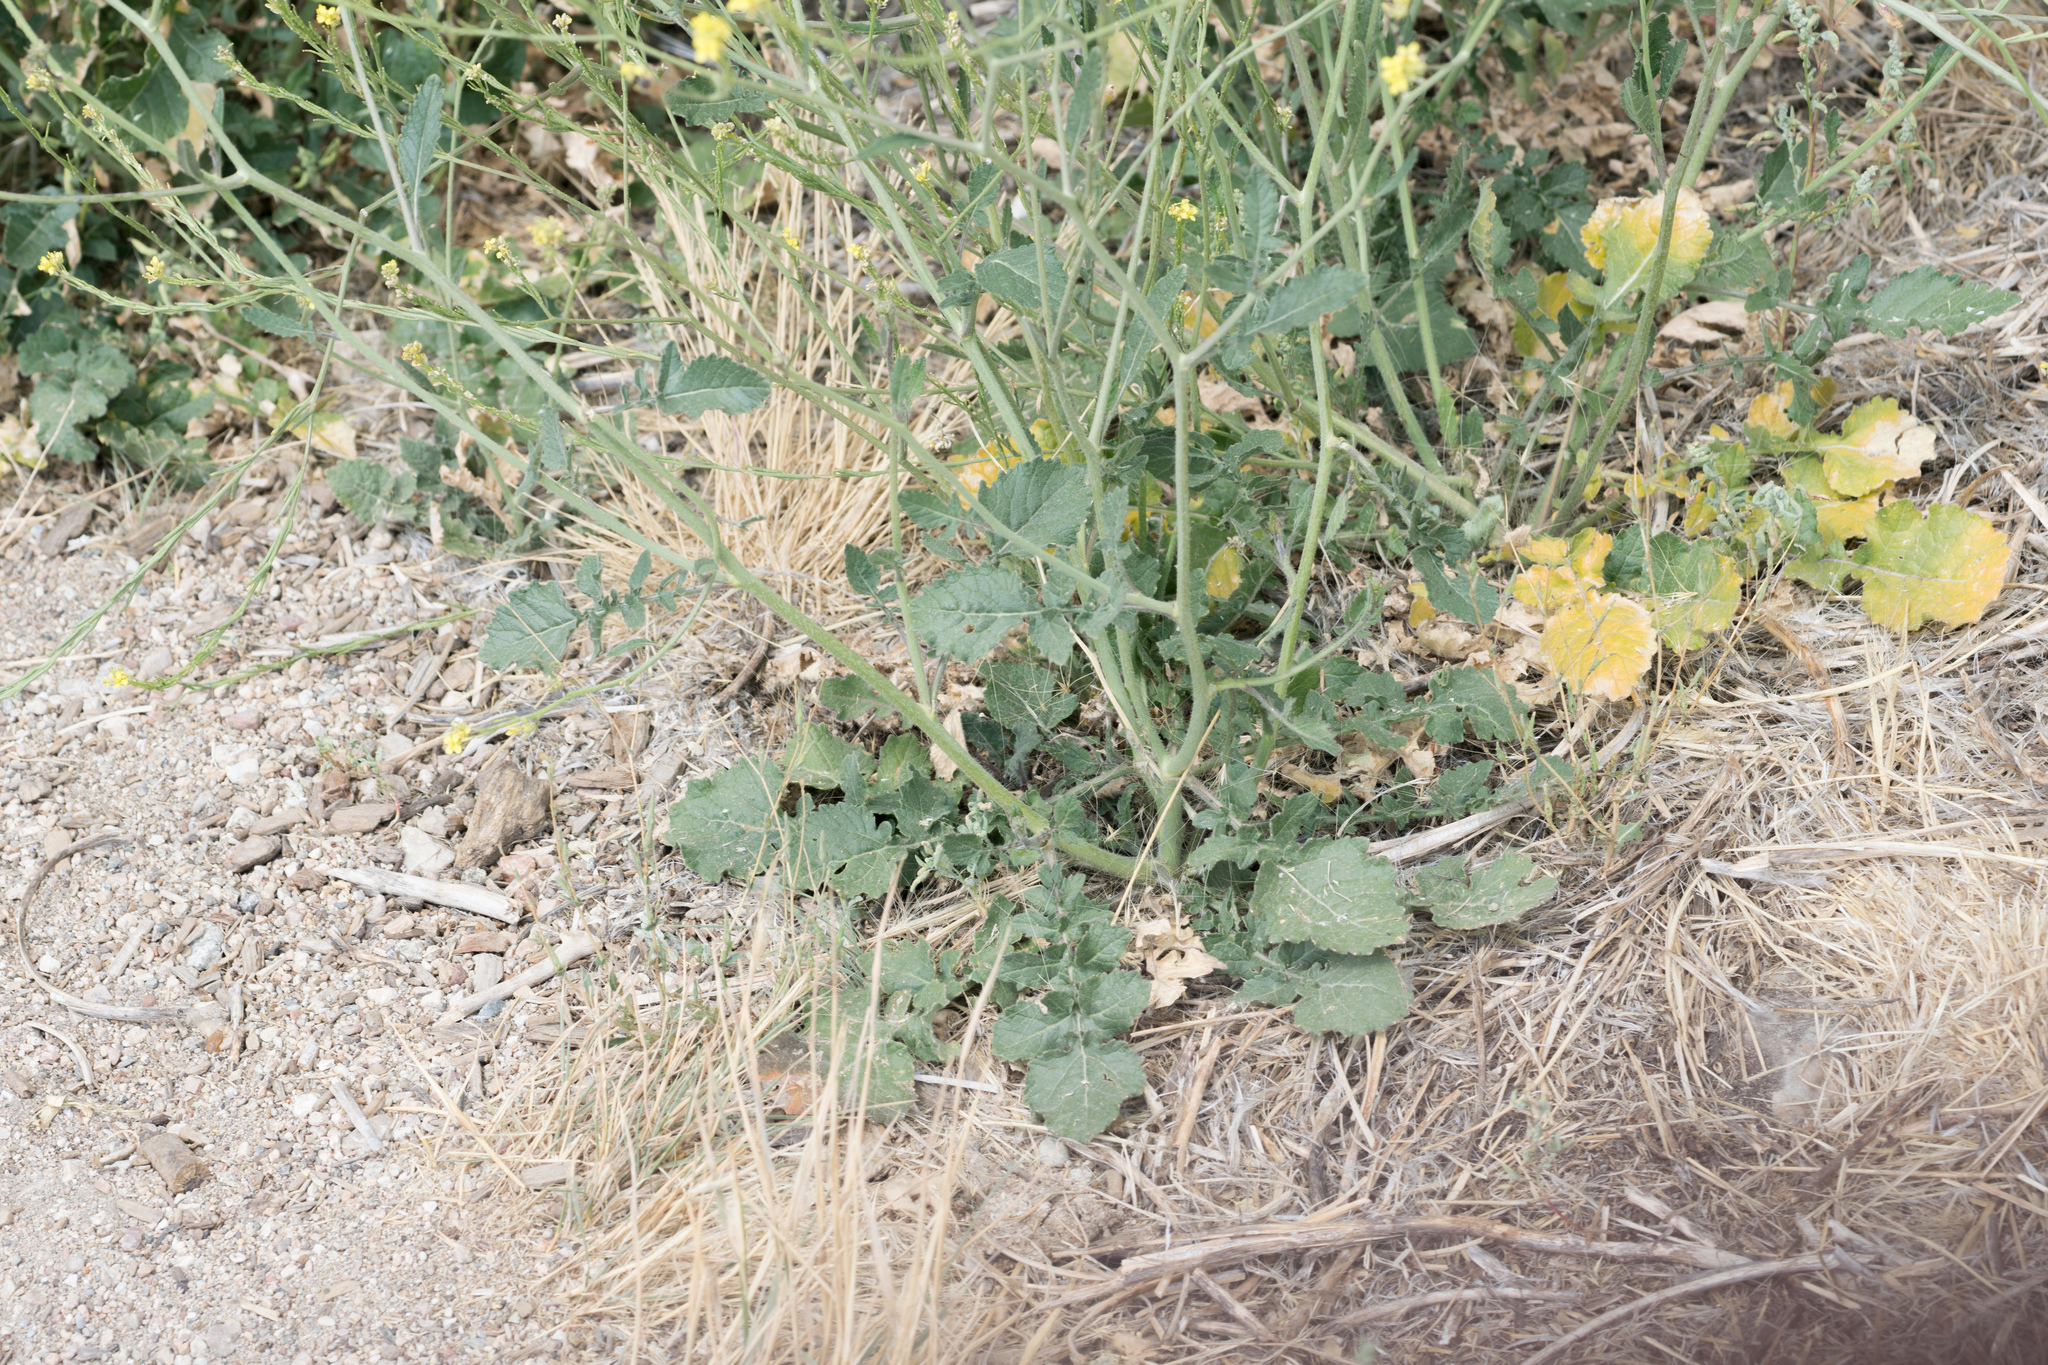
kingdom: Plantae
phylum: Tracheophyta
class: Magnoliopsida
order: Brassicales
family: Brassicaceae
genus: Hirschfeldia
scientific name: Hirschfeldia incana
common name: Hoary mustard
